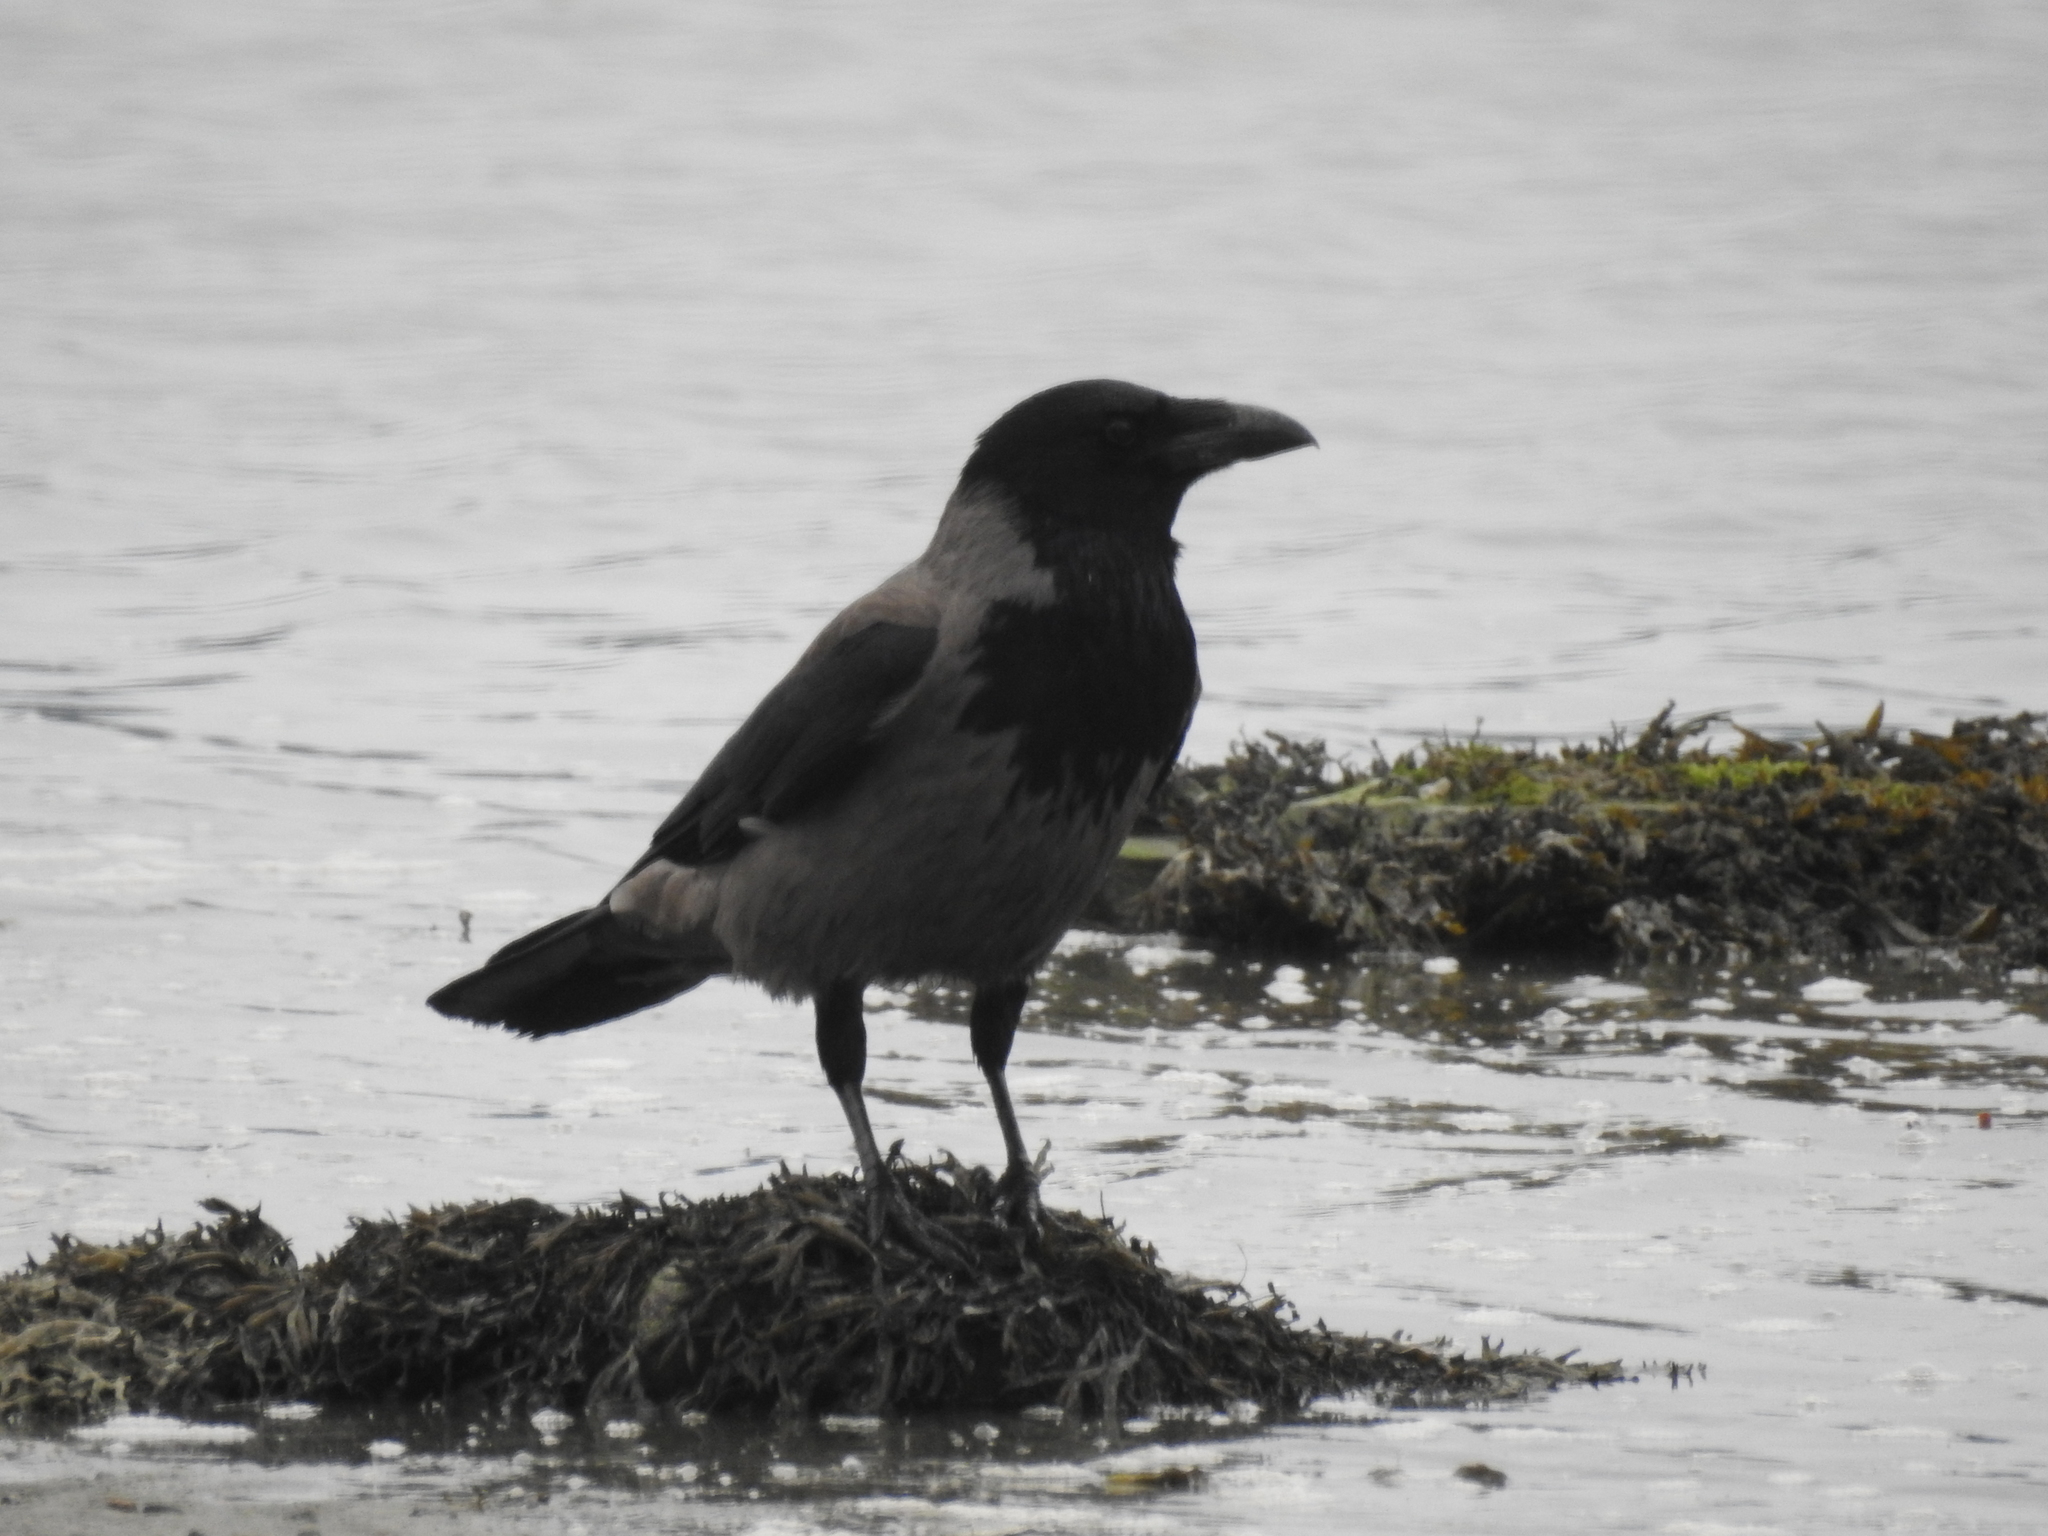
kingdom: Animalia
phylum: Chordata
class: Aves
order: Passeriformes
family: Corvidae
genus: Corvus
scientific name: Corvus cornix
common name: Hooded crow
